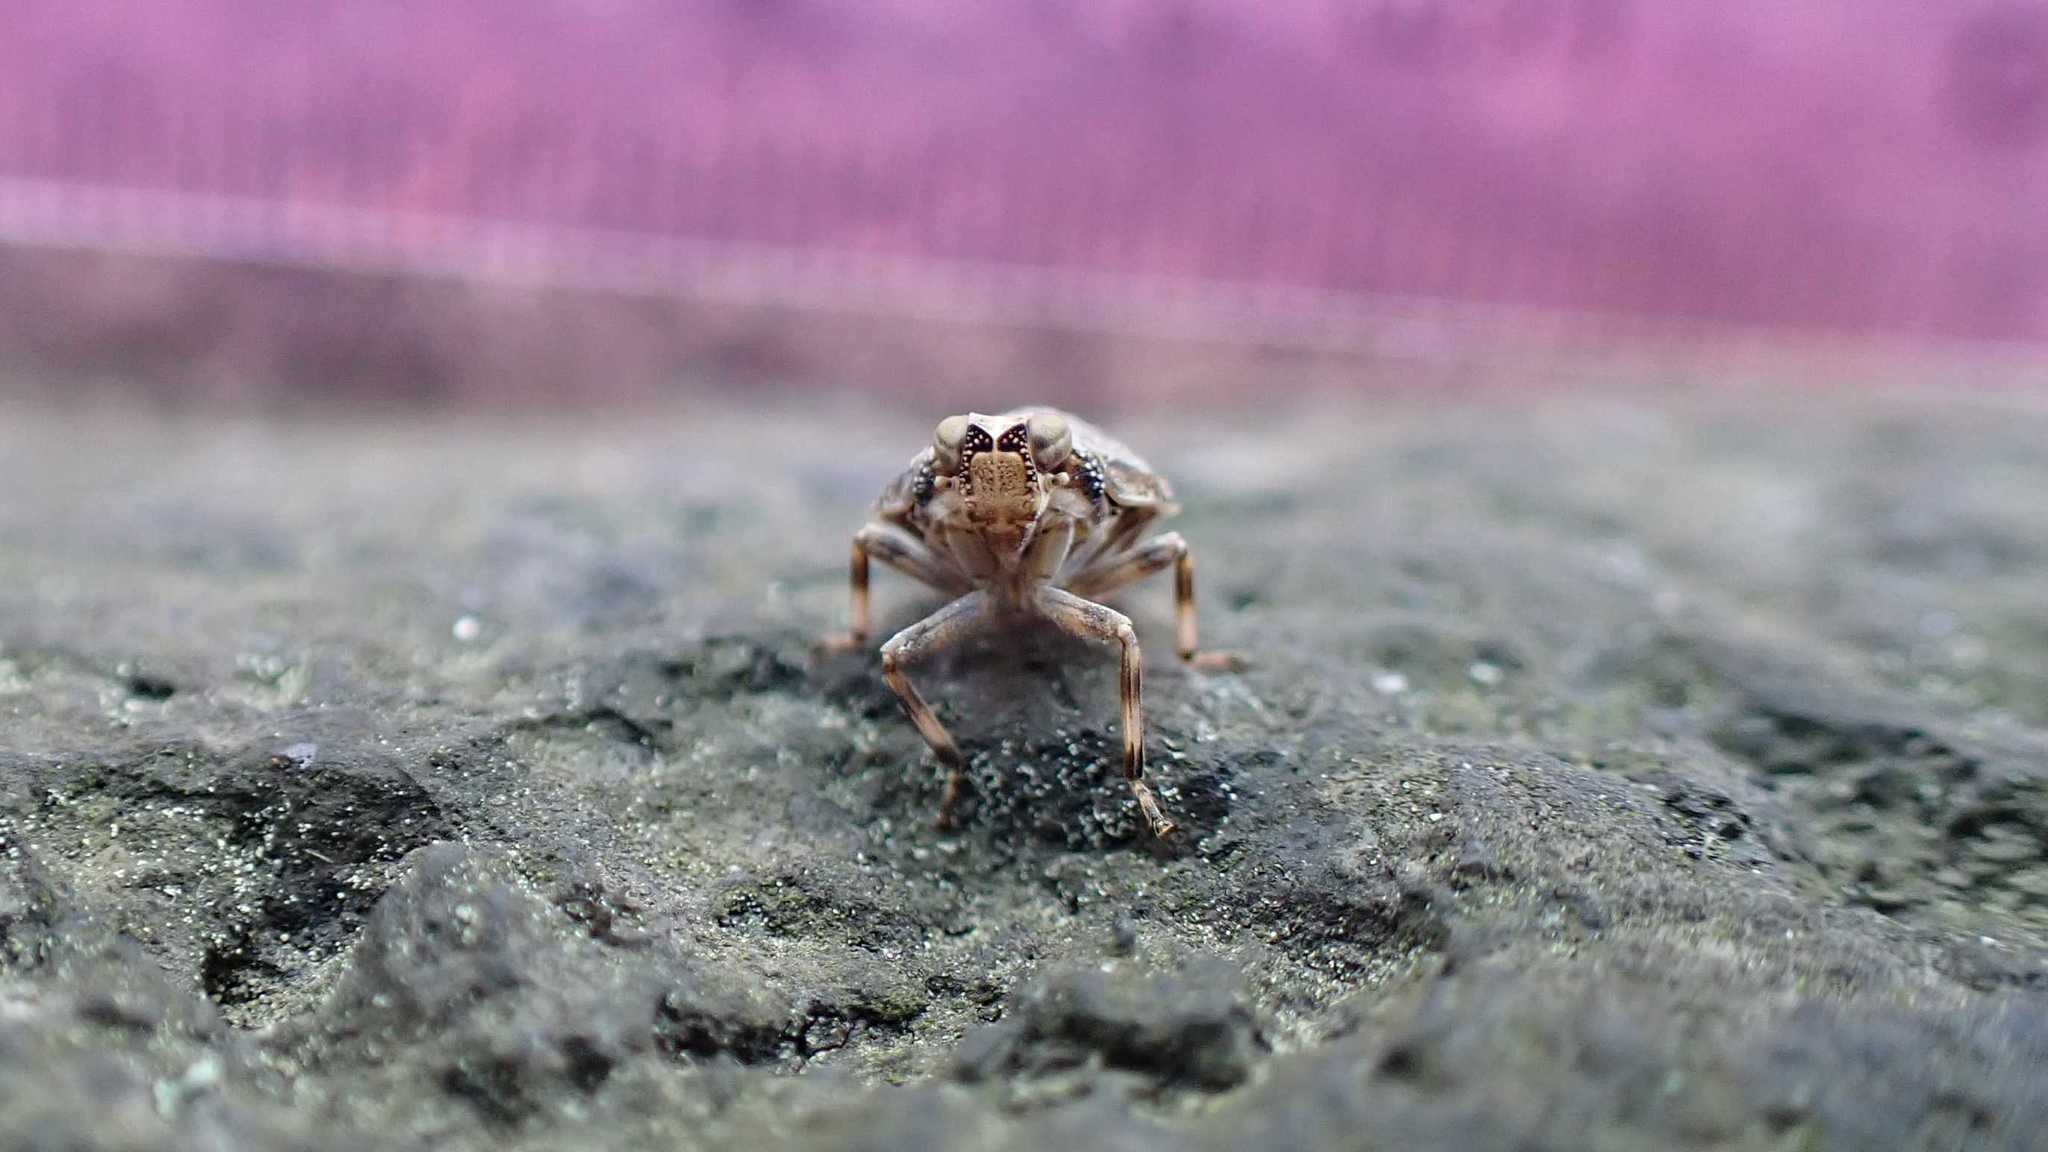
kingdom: Animalia
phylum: Arthropoda
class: Insecta
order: Hemiptera
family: Issidae
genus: Issus
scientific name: Issus coleoptratus
